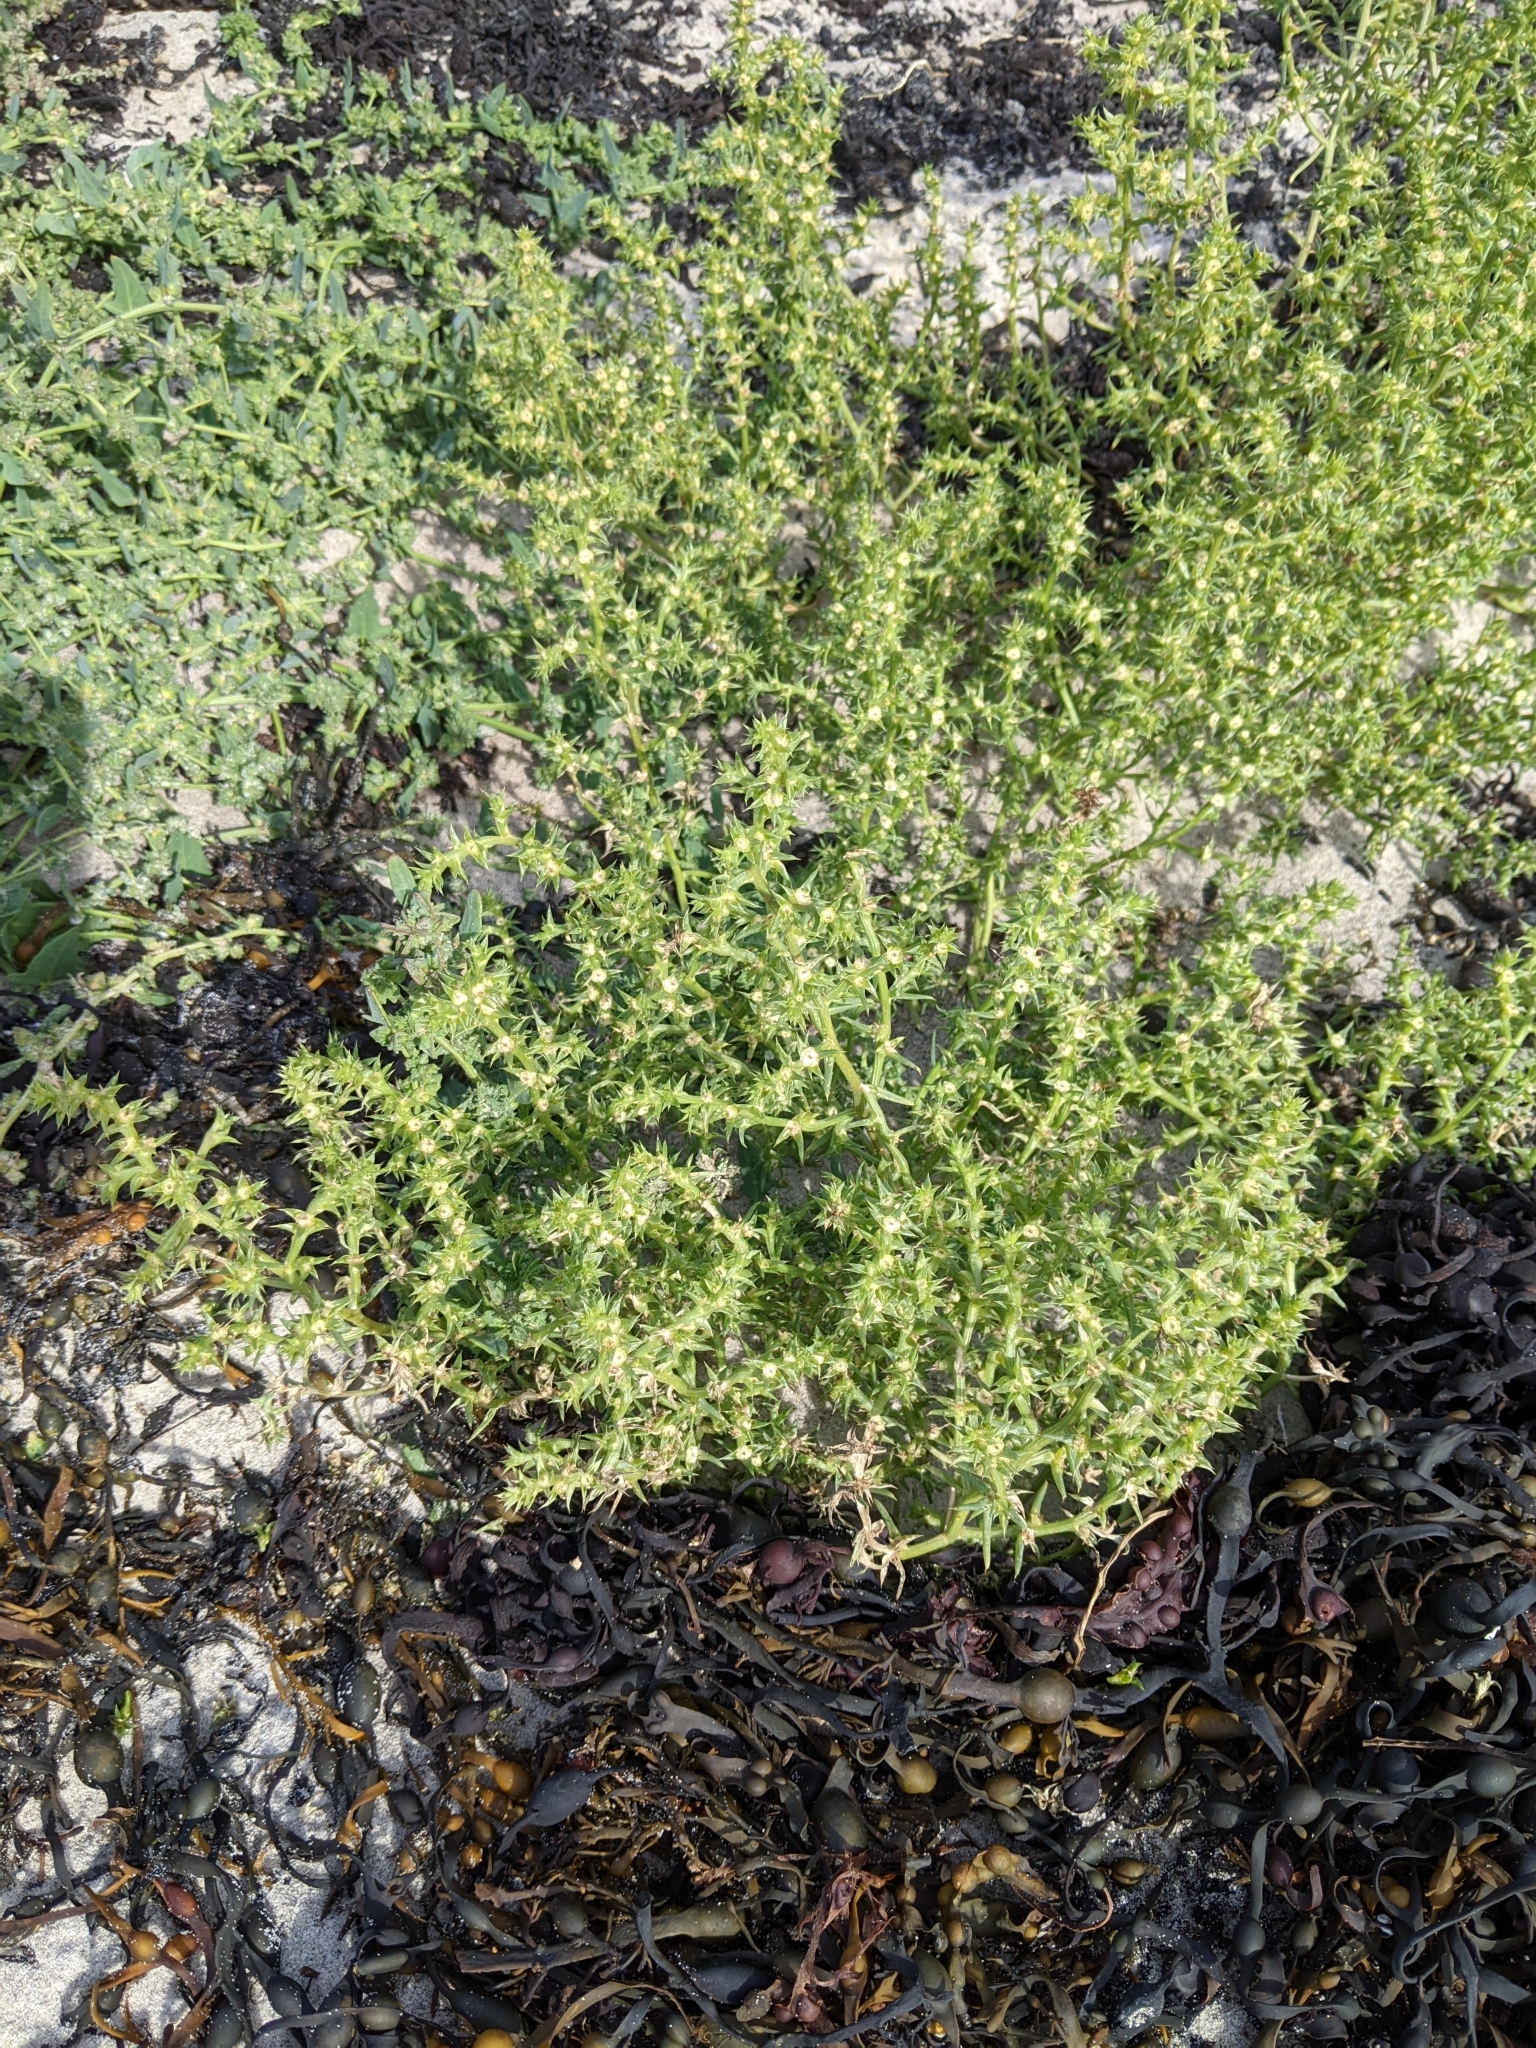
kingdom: Plantae
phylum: Tracheophyta
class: Magnoliopsida
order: Caryophyllales
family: Amaranthaceae
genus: Salsola
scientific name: Salsola kali
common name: Saltwort
